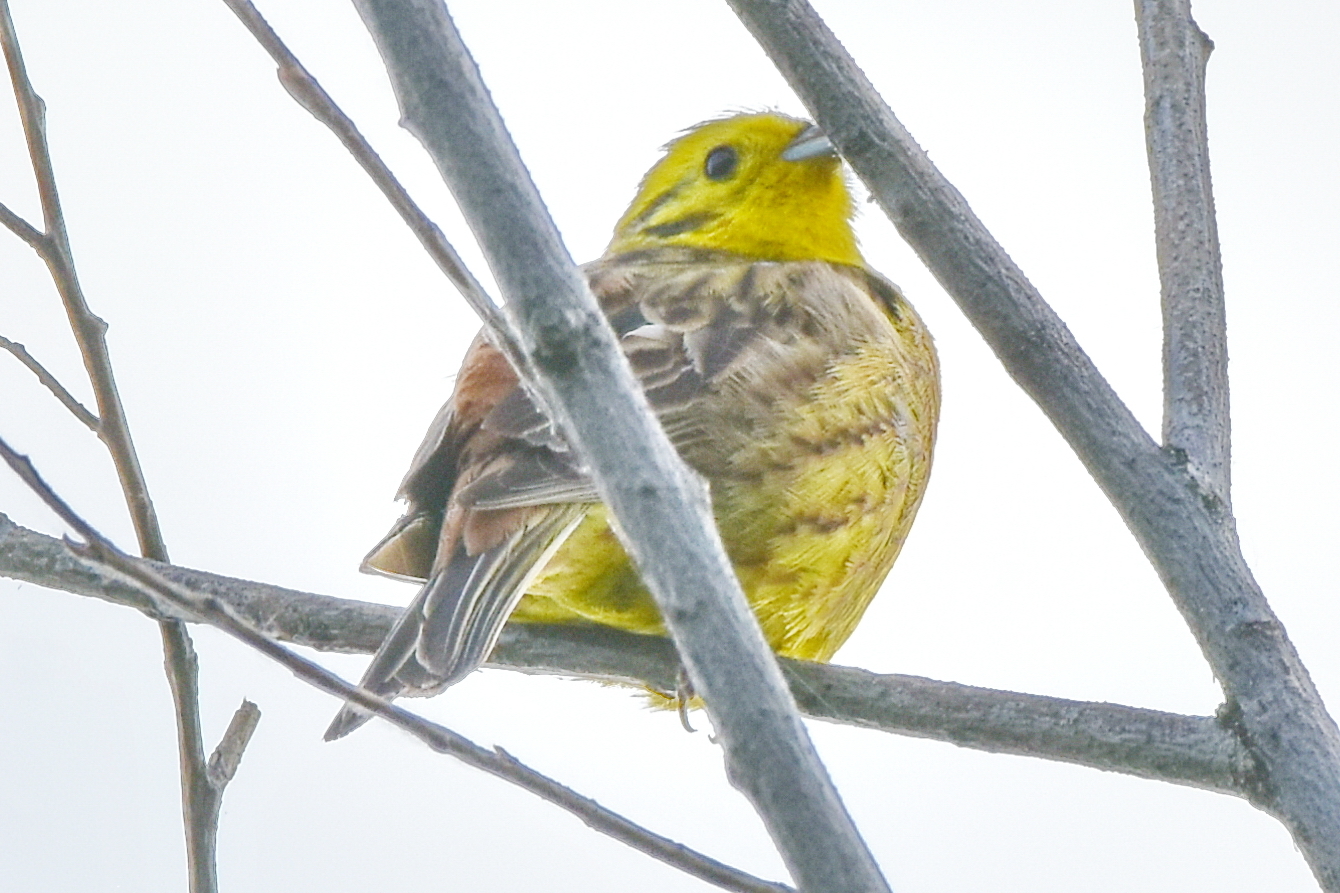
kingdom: Animalia
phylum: Chordata
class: Aves
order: Passeriformes
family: Emberizidae
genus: Emberiza
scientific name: Emberiza citrinella
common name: Yellowhammer
